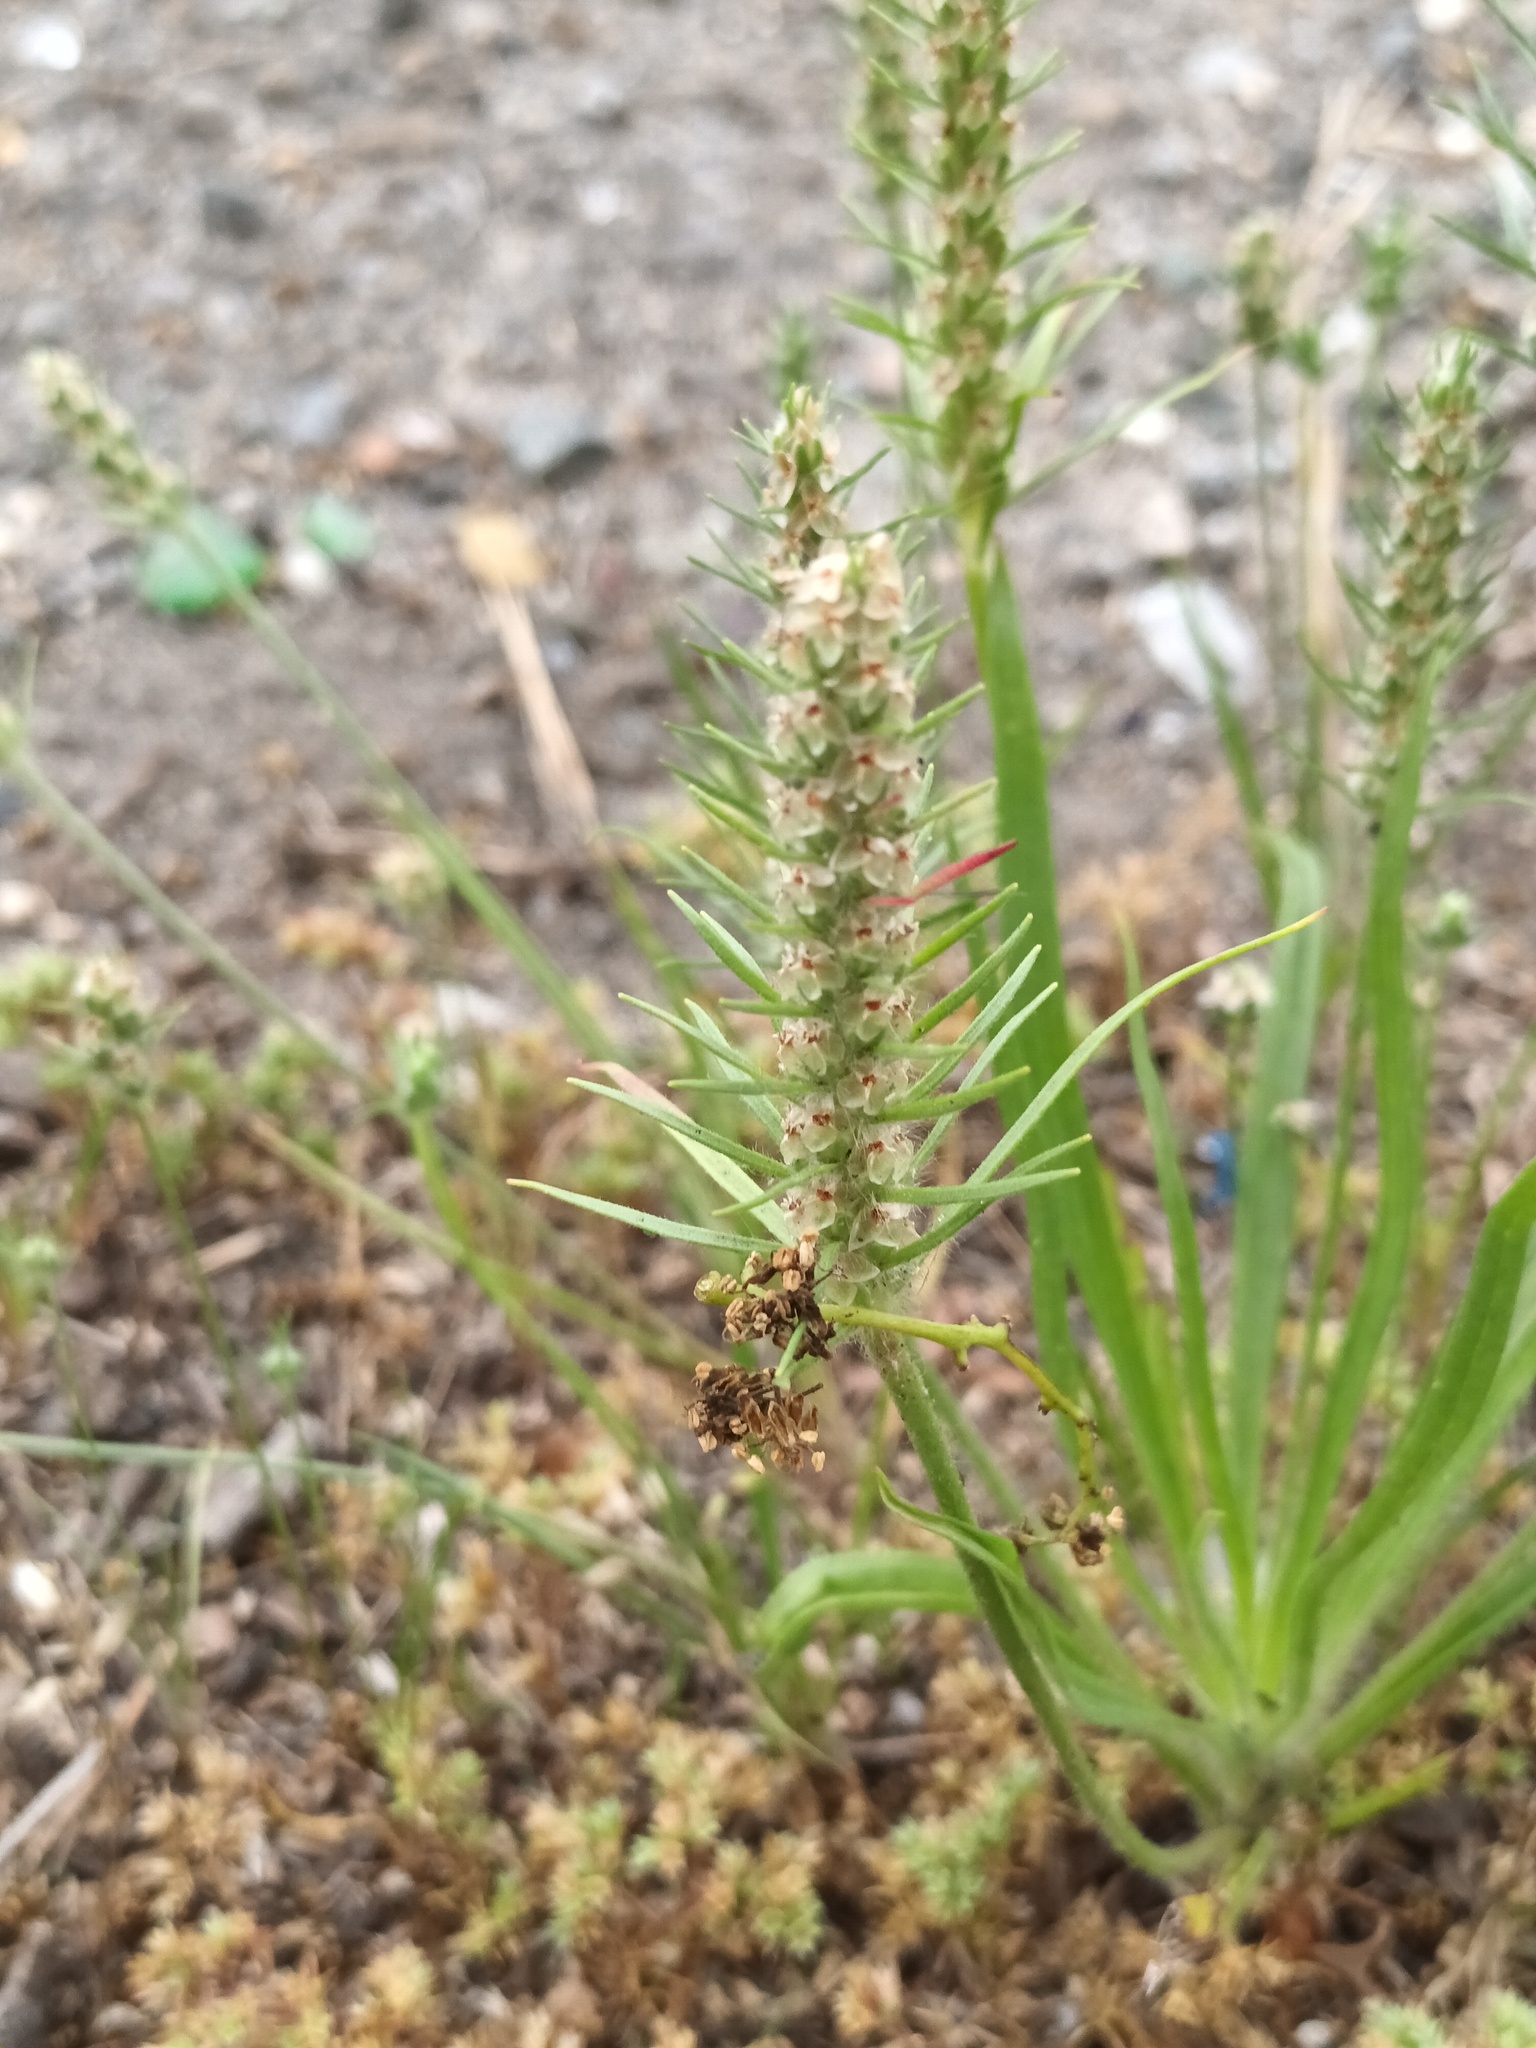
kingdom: Plantae
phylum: Tracheophyta
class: Magnoliopsida
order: Lamiales
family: Plantaginaceae
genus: Plantago
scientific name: Plantago aristata
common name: Bracted plantain
